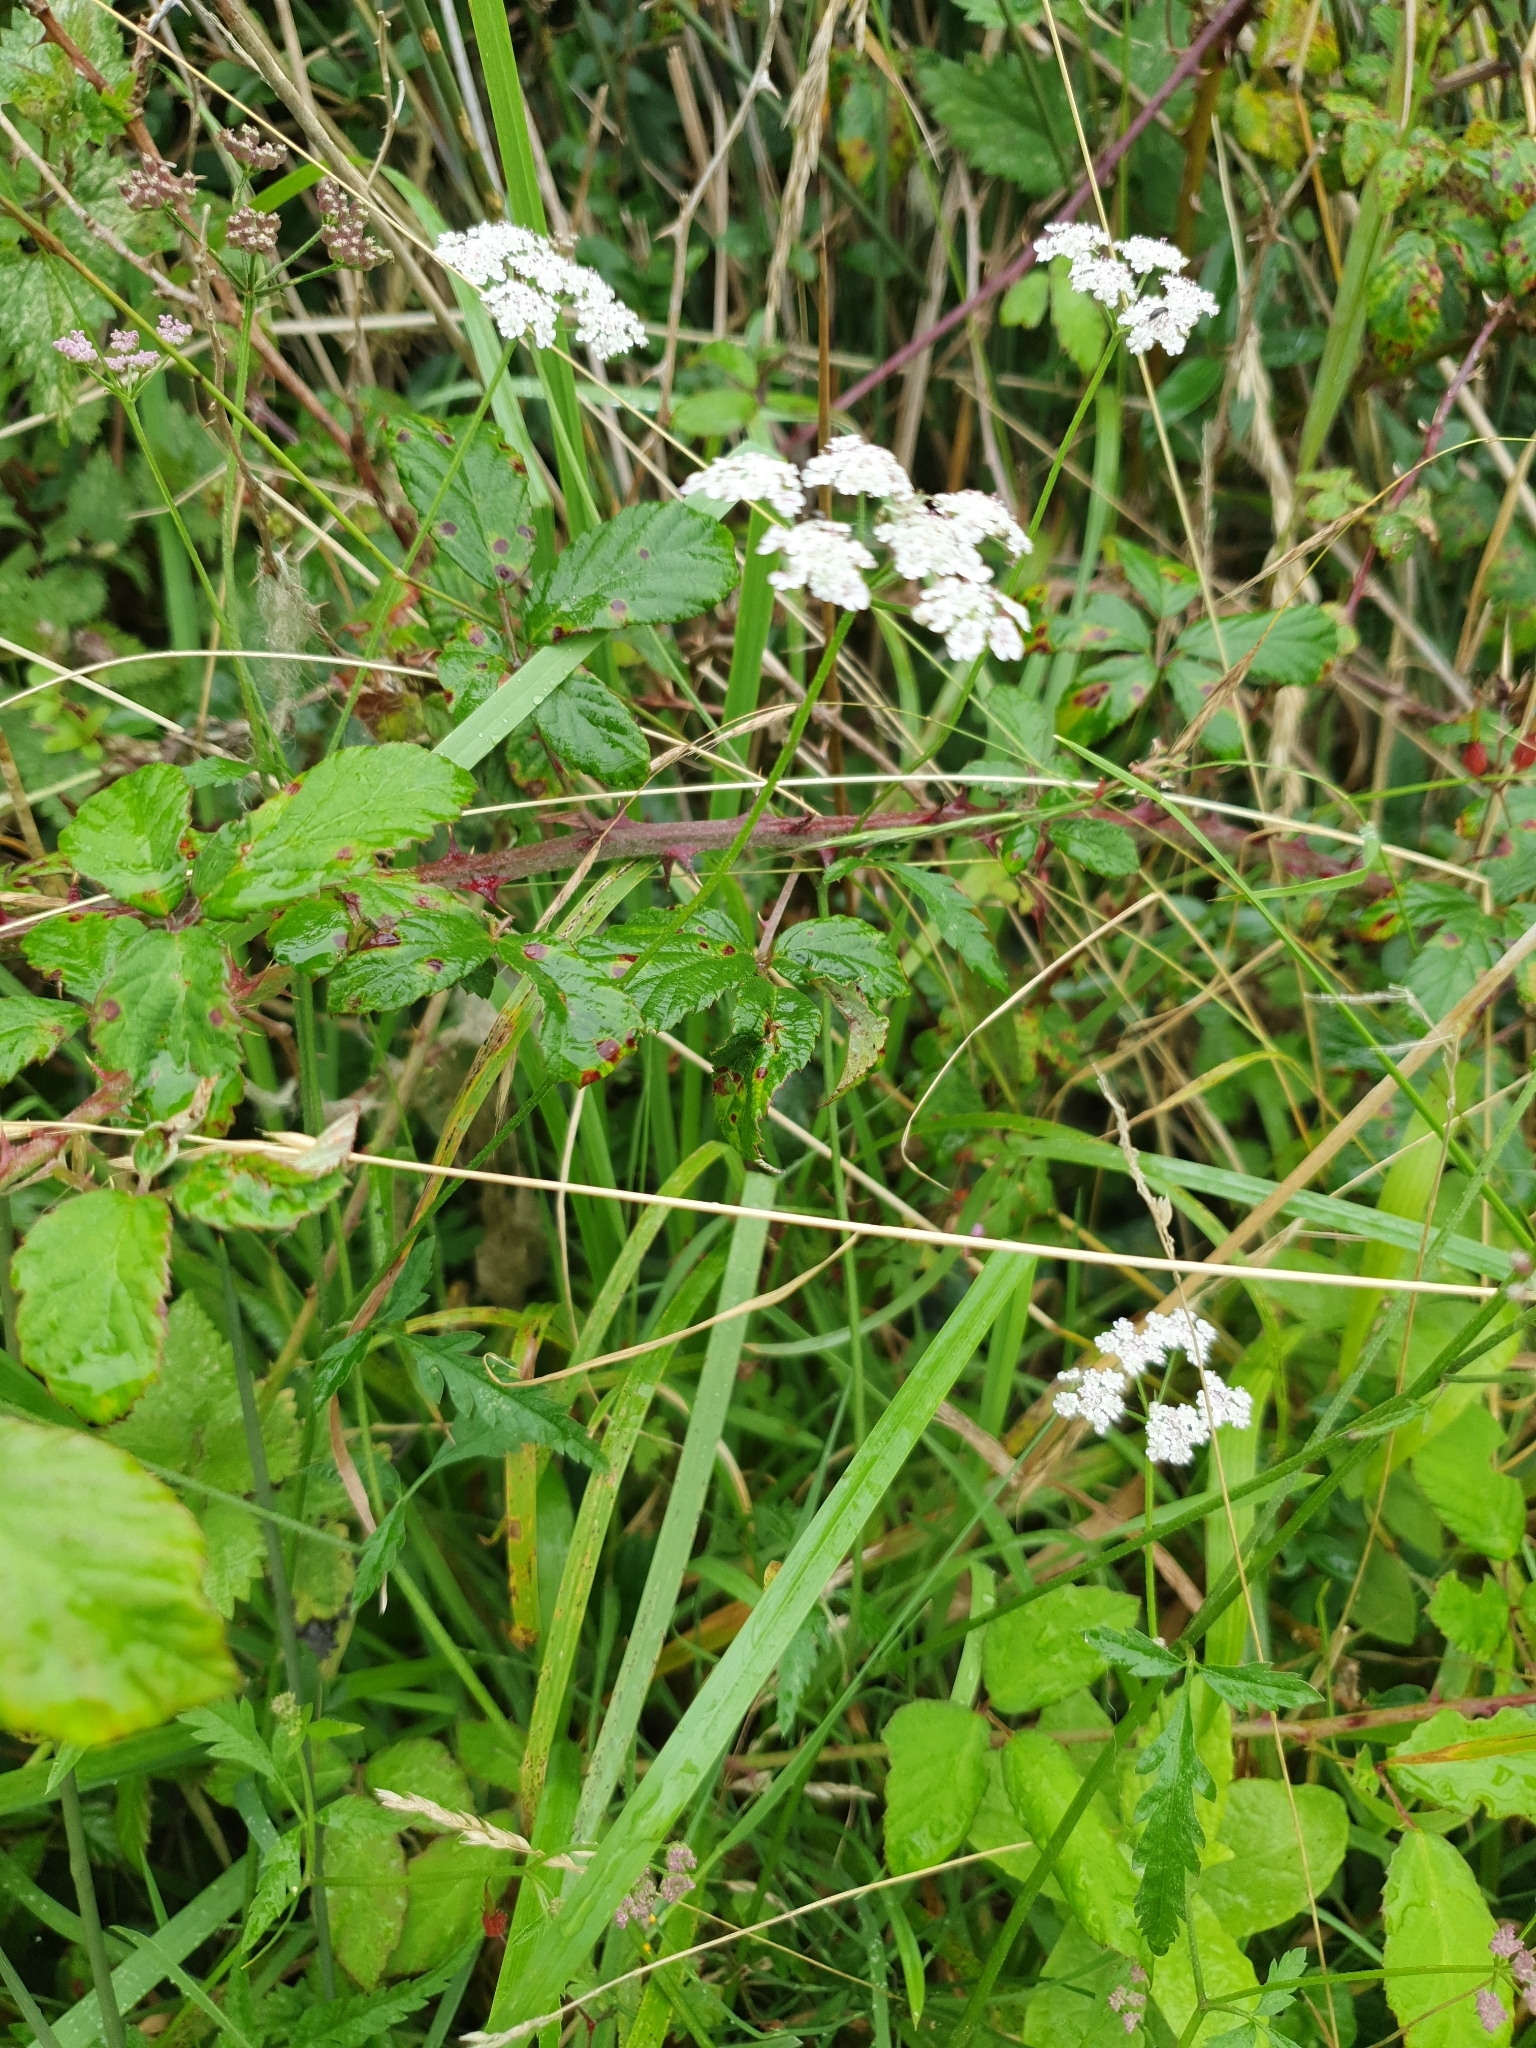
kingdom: Plantae
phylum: Tracheophyta
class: Magnoliopsida
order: Apiales
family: Apiaceae
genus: Torilis
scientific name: Torilis japonica
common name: Upright hedge-parsley
